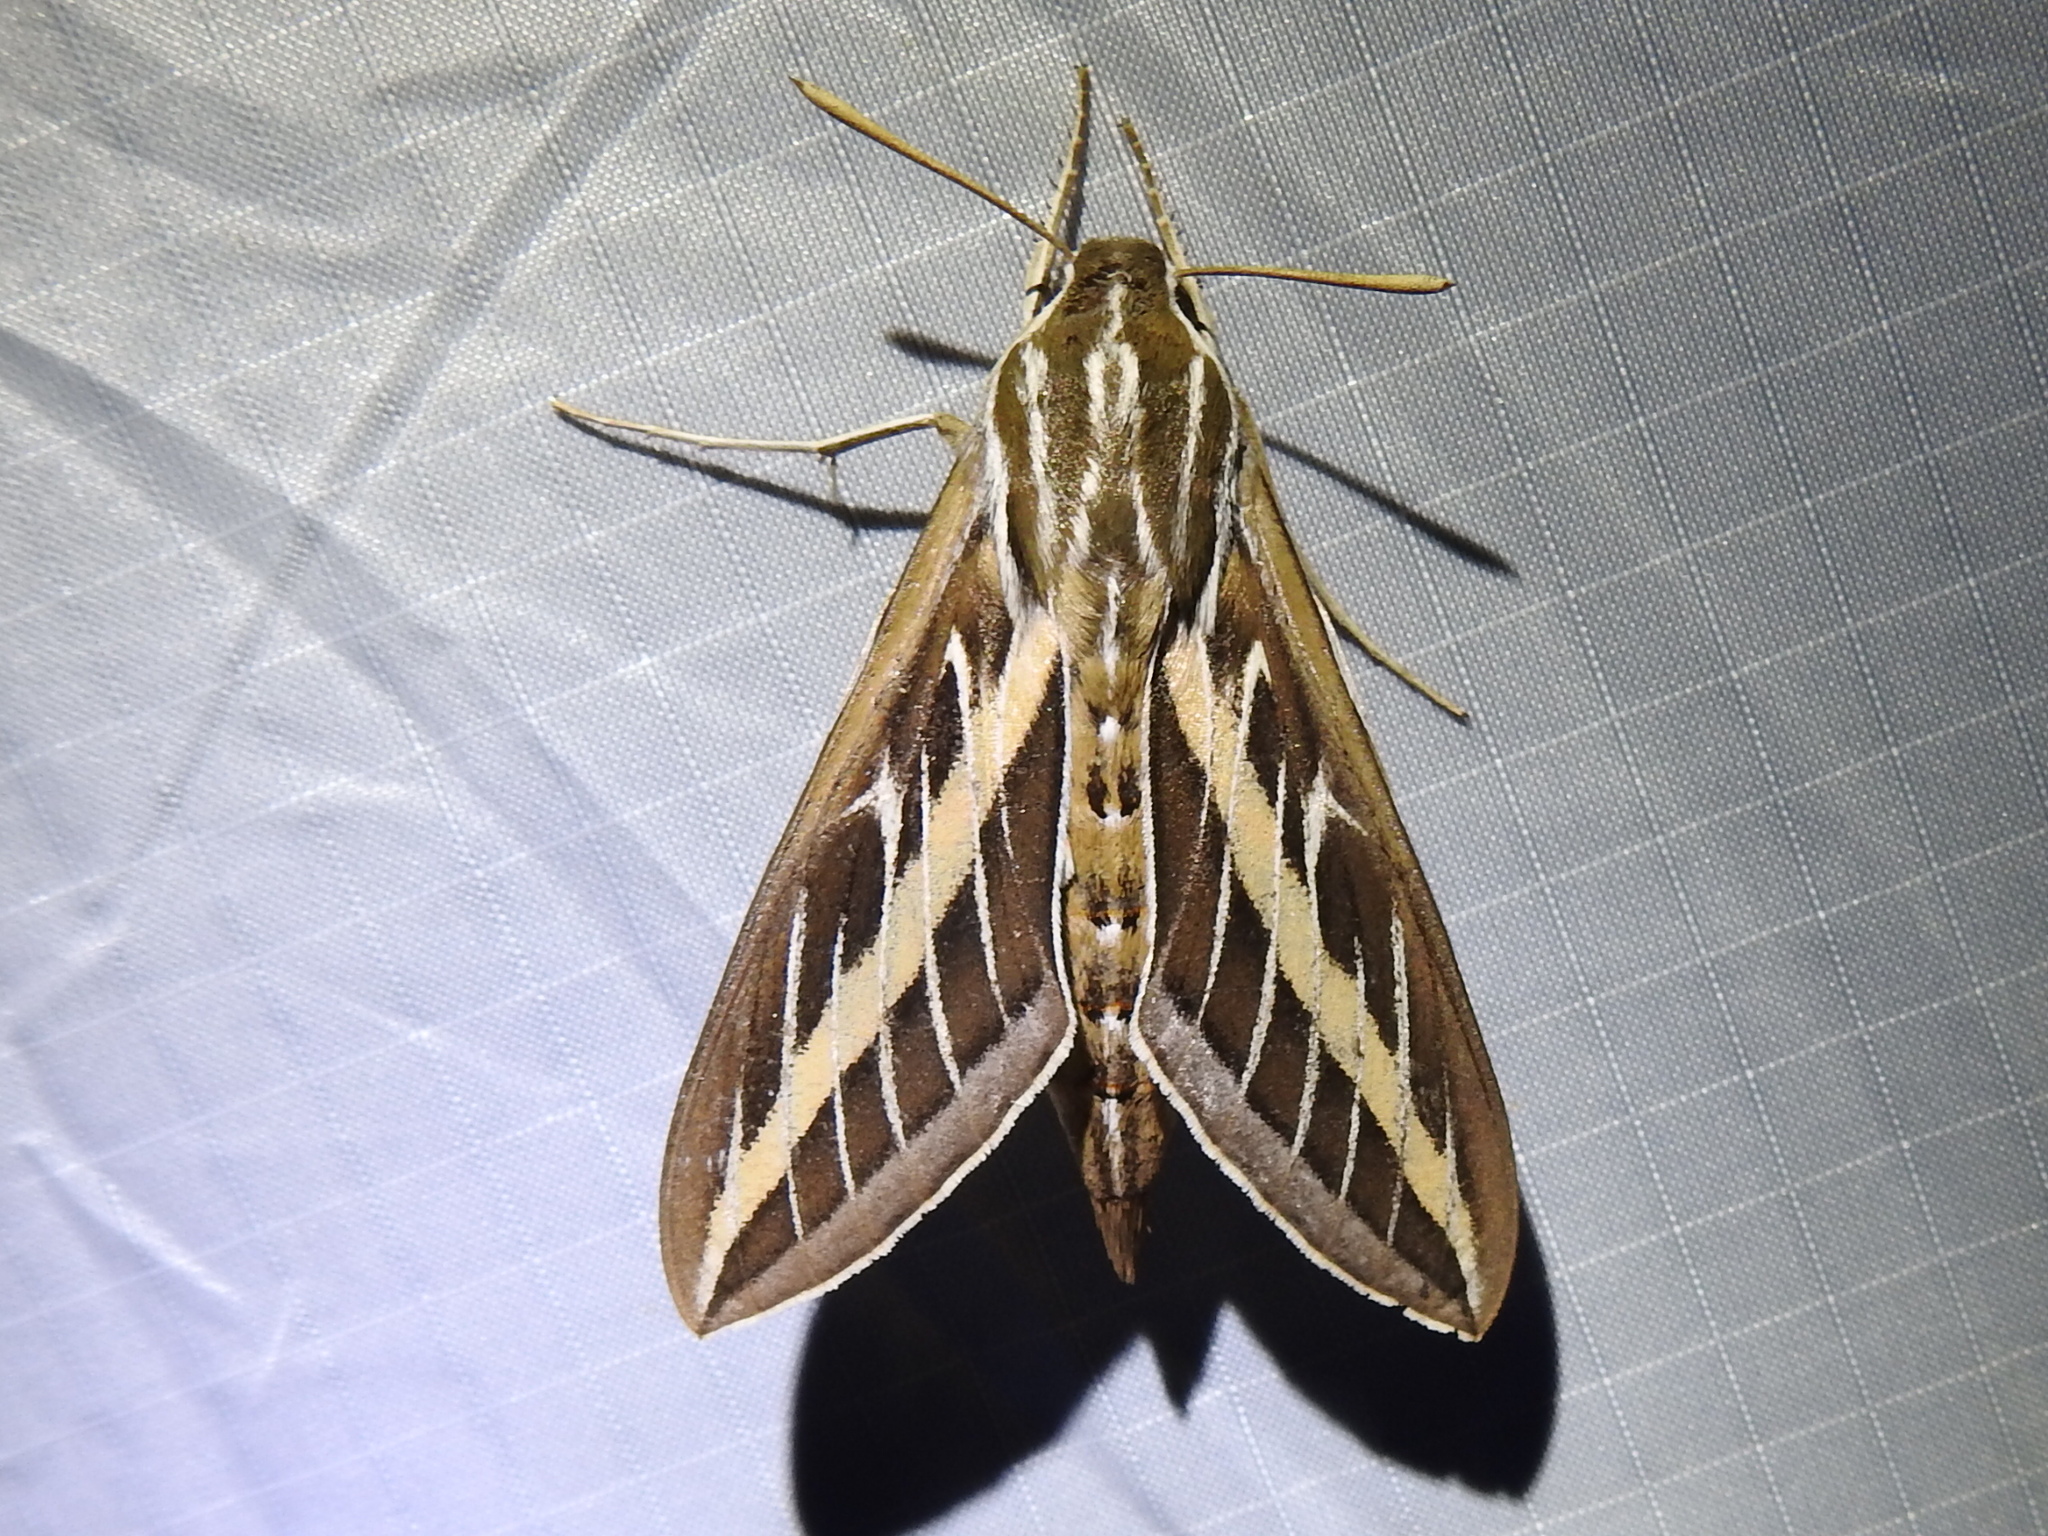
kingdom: Animalia
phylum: Arthropoda
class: Insecta
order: Lepidoptera
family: Sphingidae
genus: Hyles
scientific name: Hyles lineata
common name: White-lined sphinx
